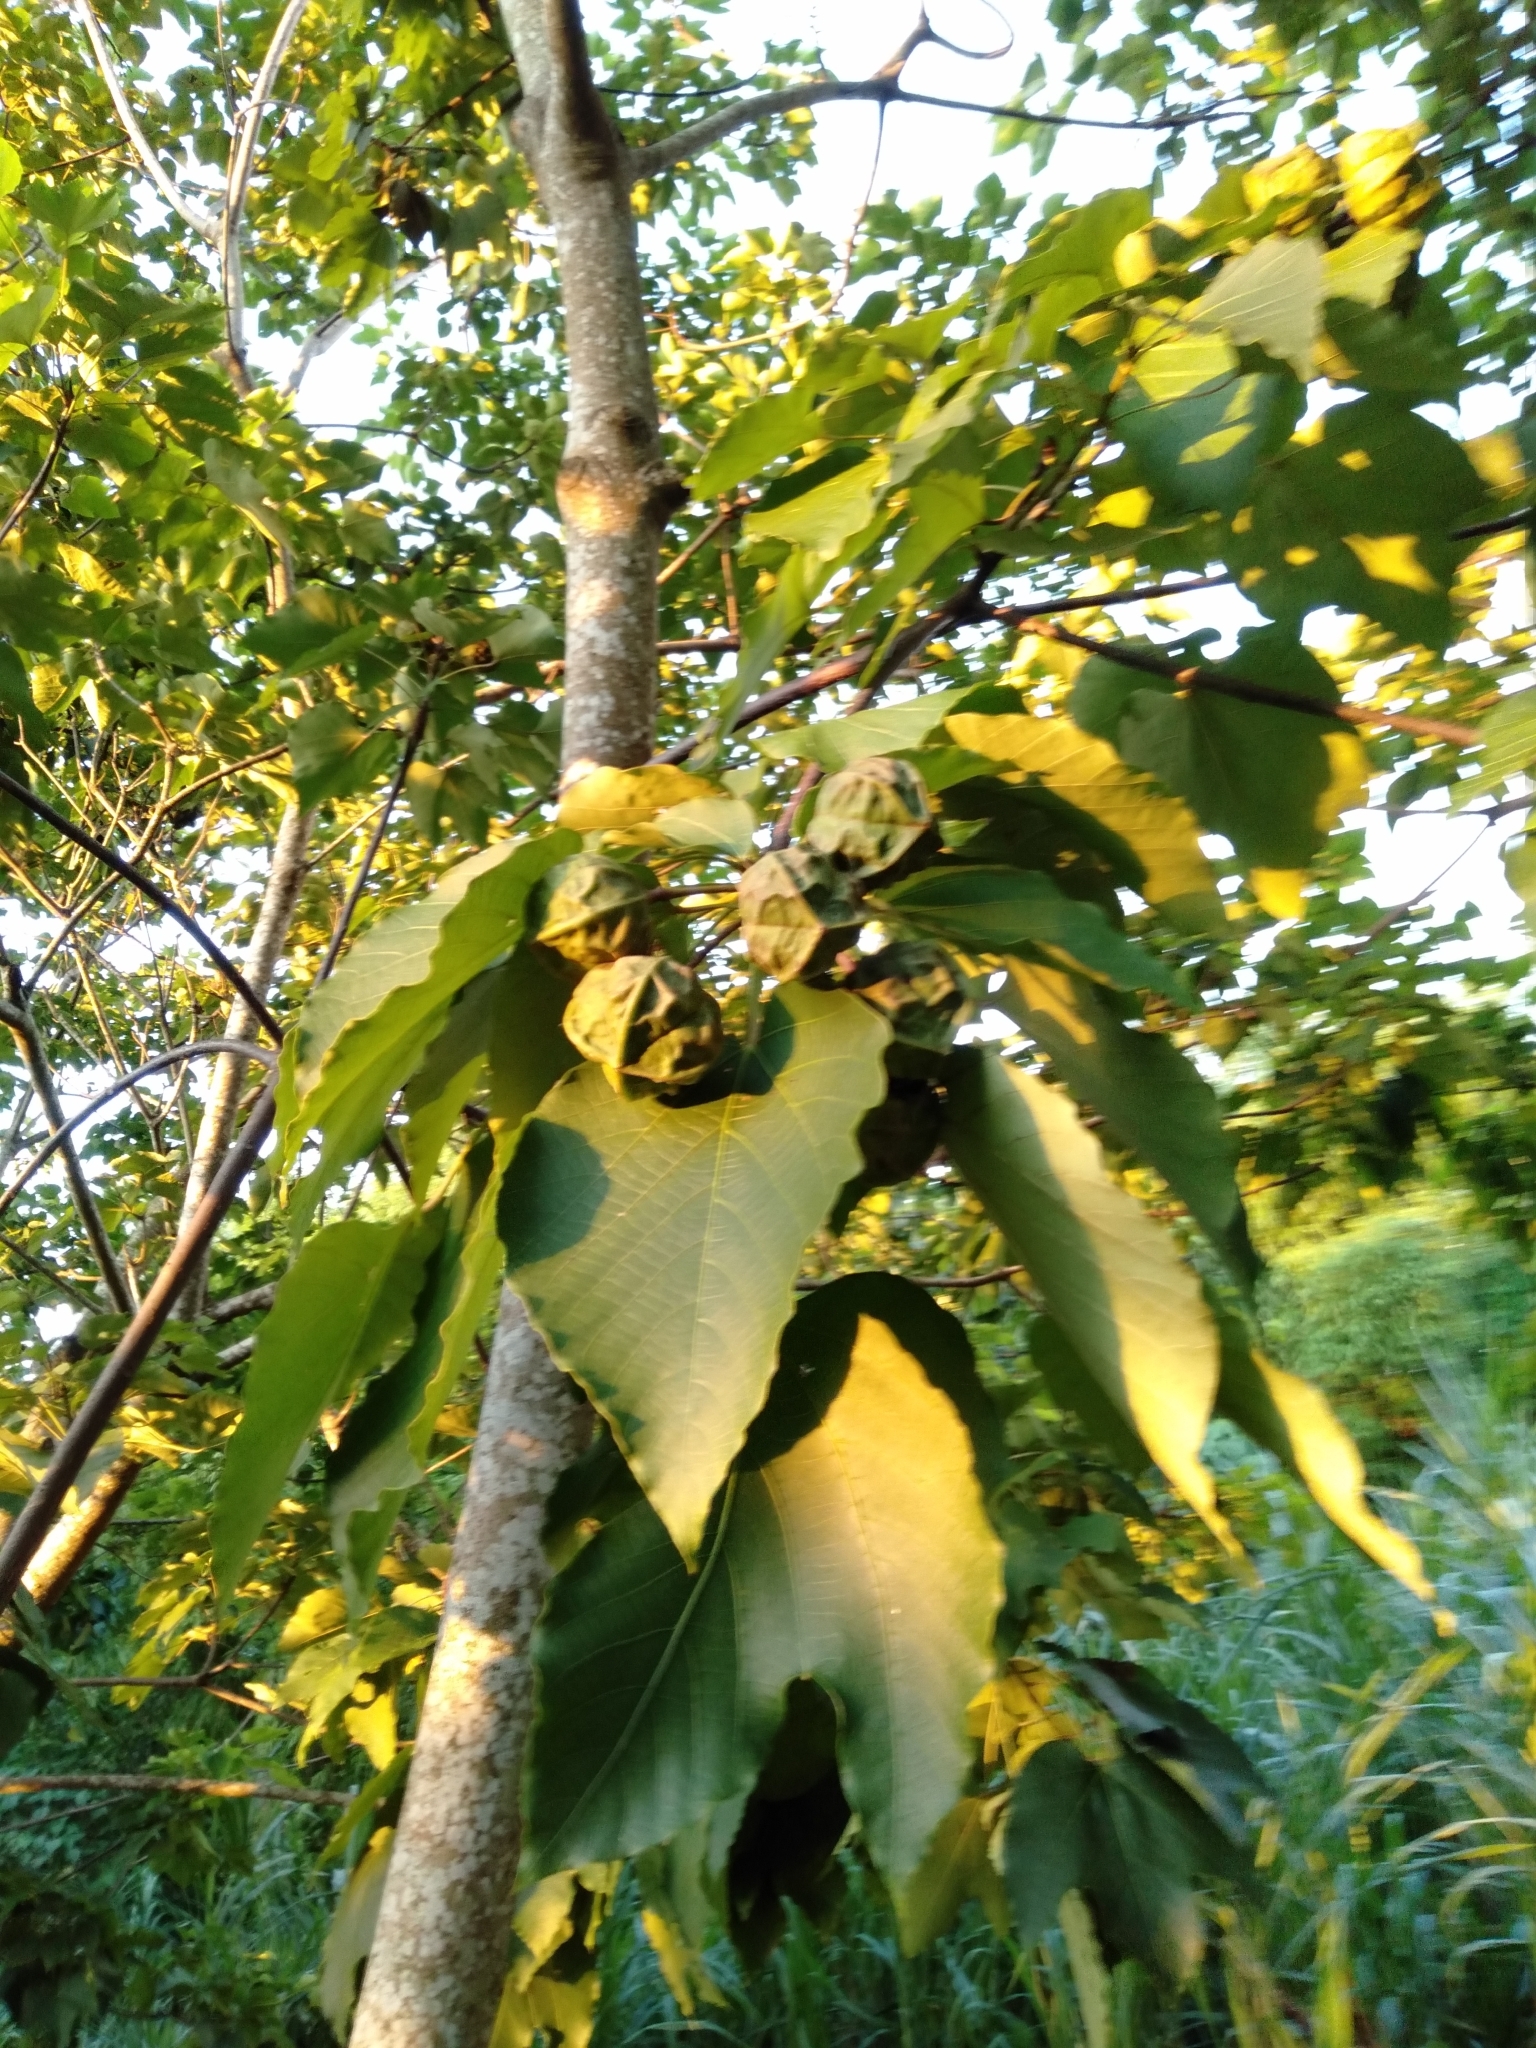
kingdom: Plantae
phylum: Tracheophyta
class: Magnoliopsida
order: Malpighiales
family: Euphorbiaceae
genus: Vernicia
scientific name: Vernicia montana
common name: Mu oil tree
